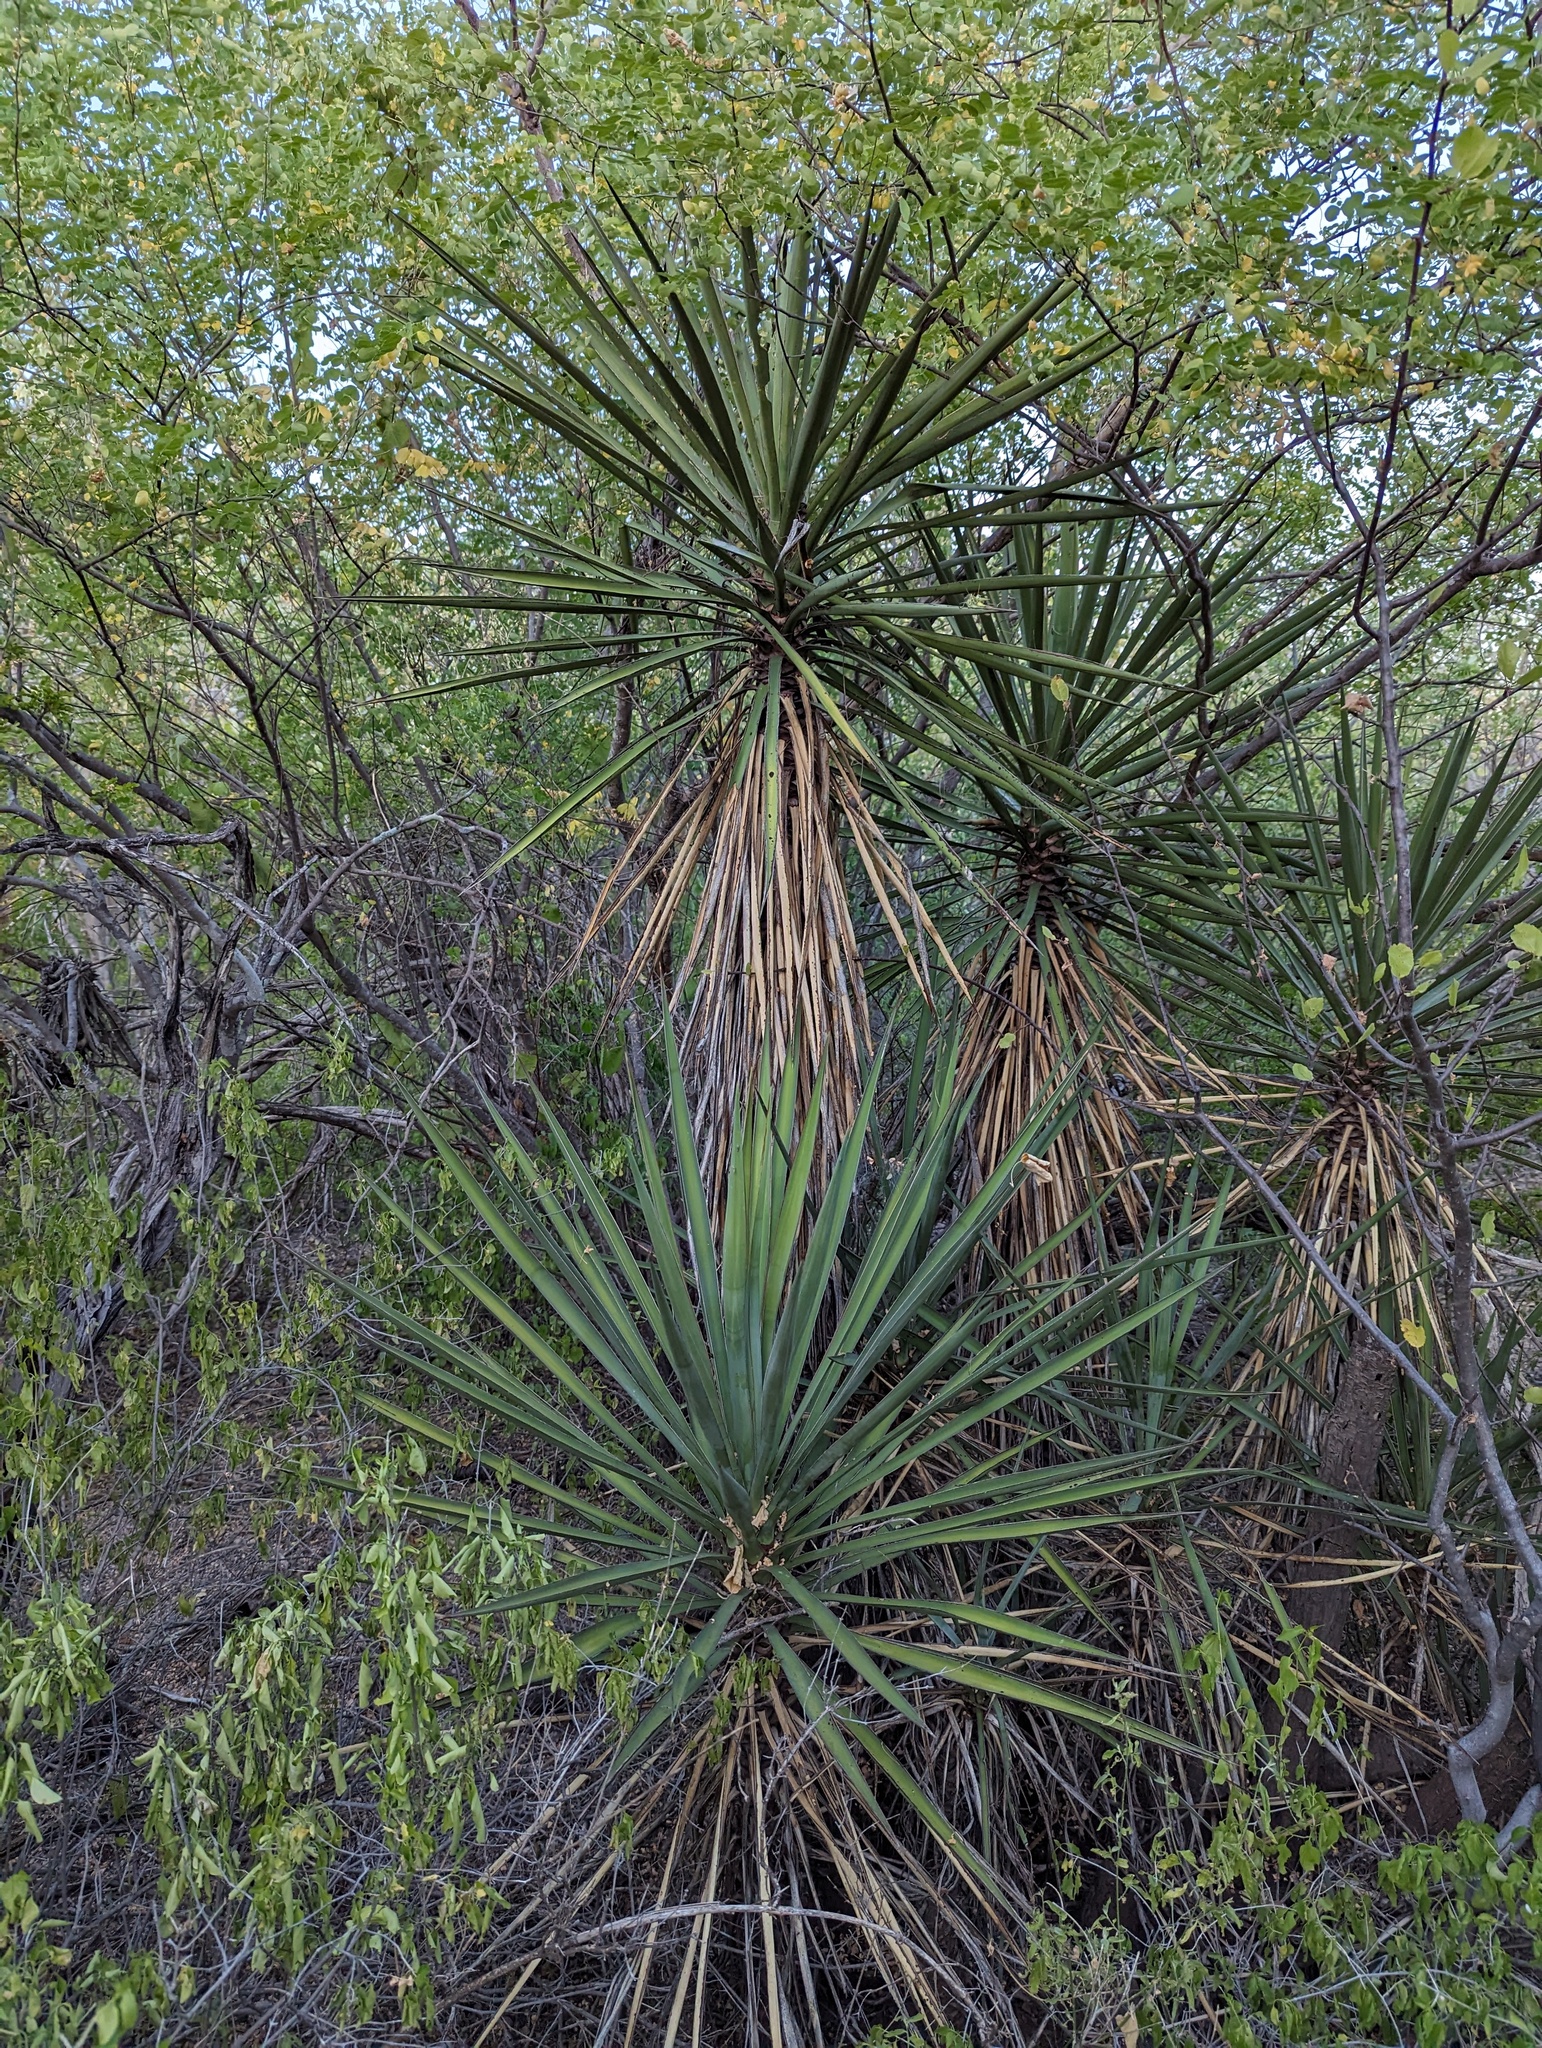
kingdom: Plantae
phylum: Tracheophyta
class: Liliopsida
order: Asparagales
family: Asparagaceae
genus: Yucca
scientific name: Yucca capensis
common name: Cape region yucca
